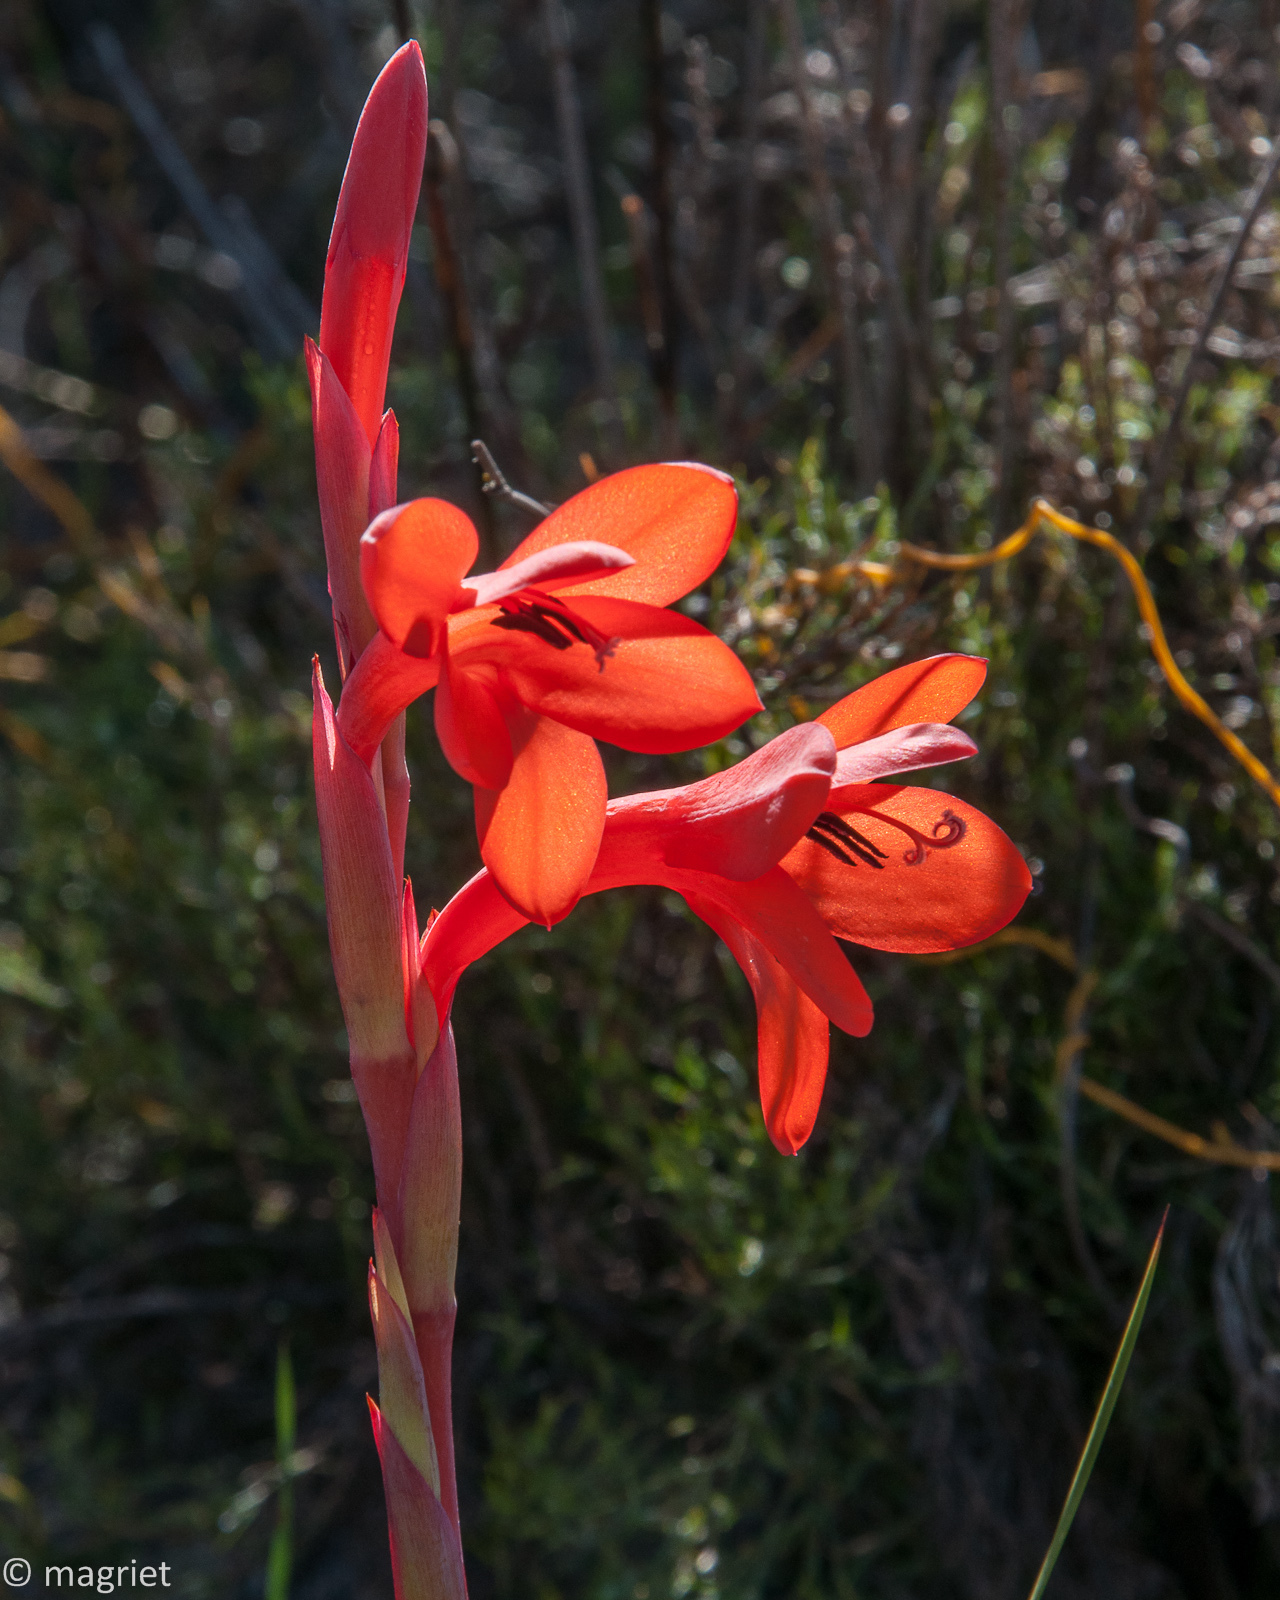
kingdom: Plantae
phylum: Tracheophyta
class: Liliopsida
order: Asparagales
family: Iridaceae
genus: Watsonia
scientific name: Watsonia coccinea
